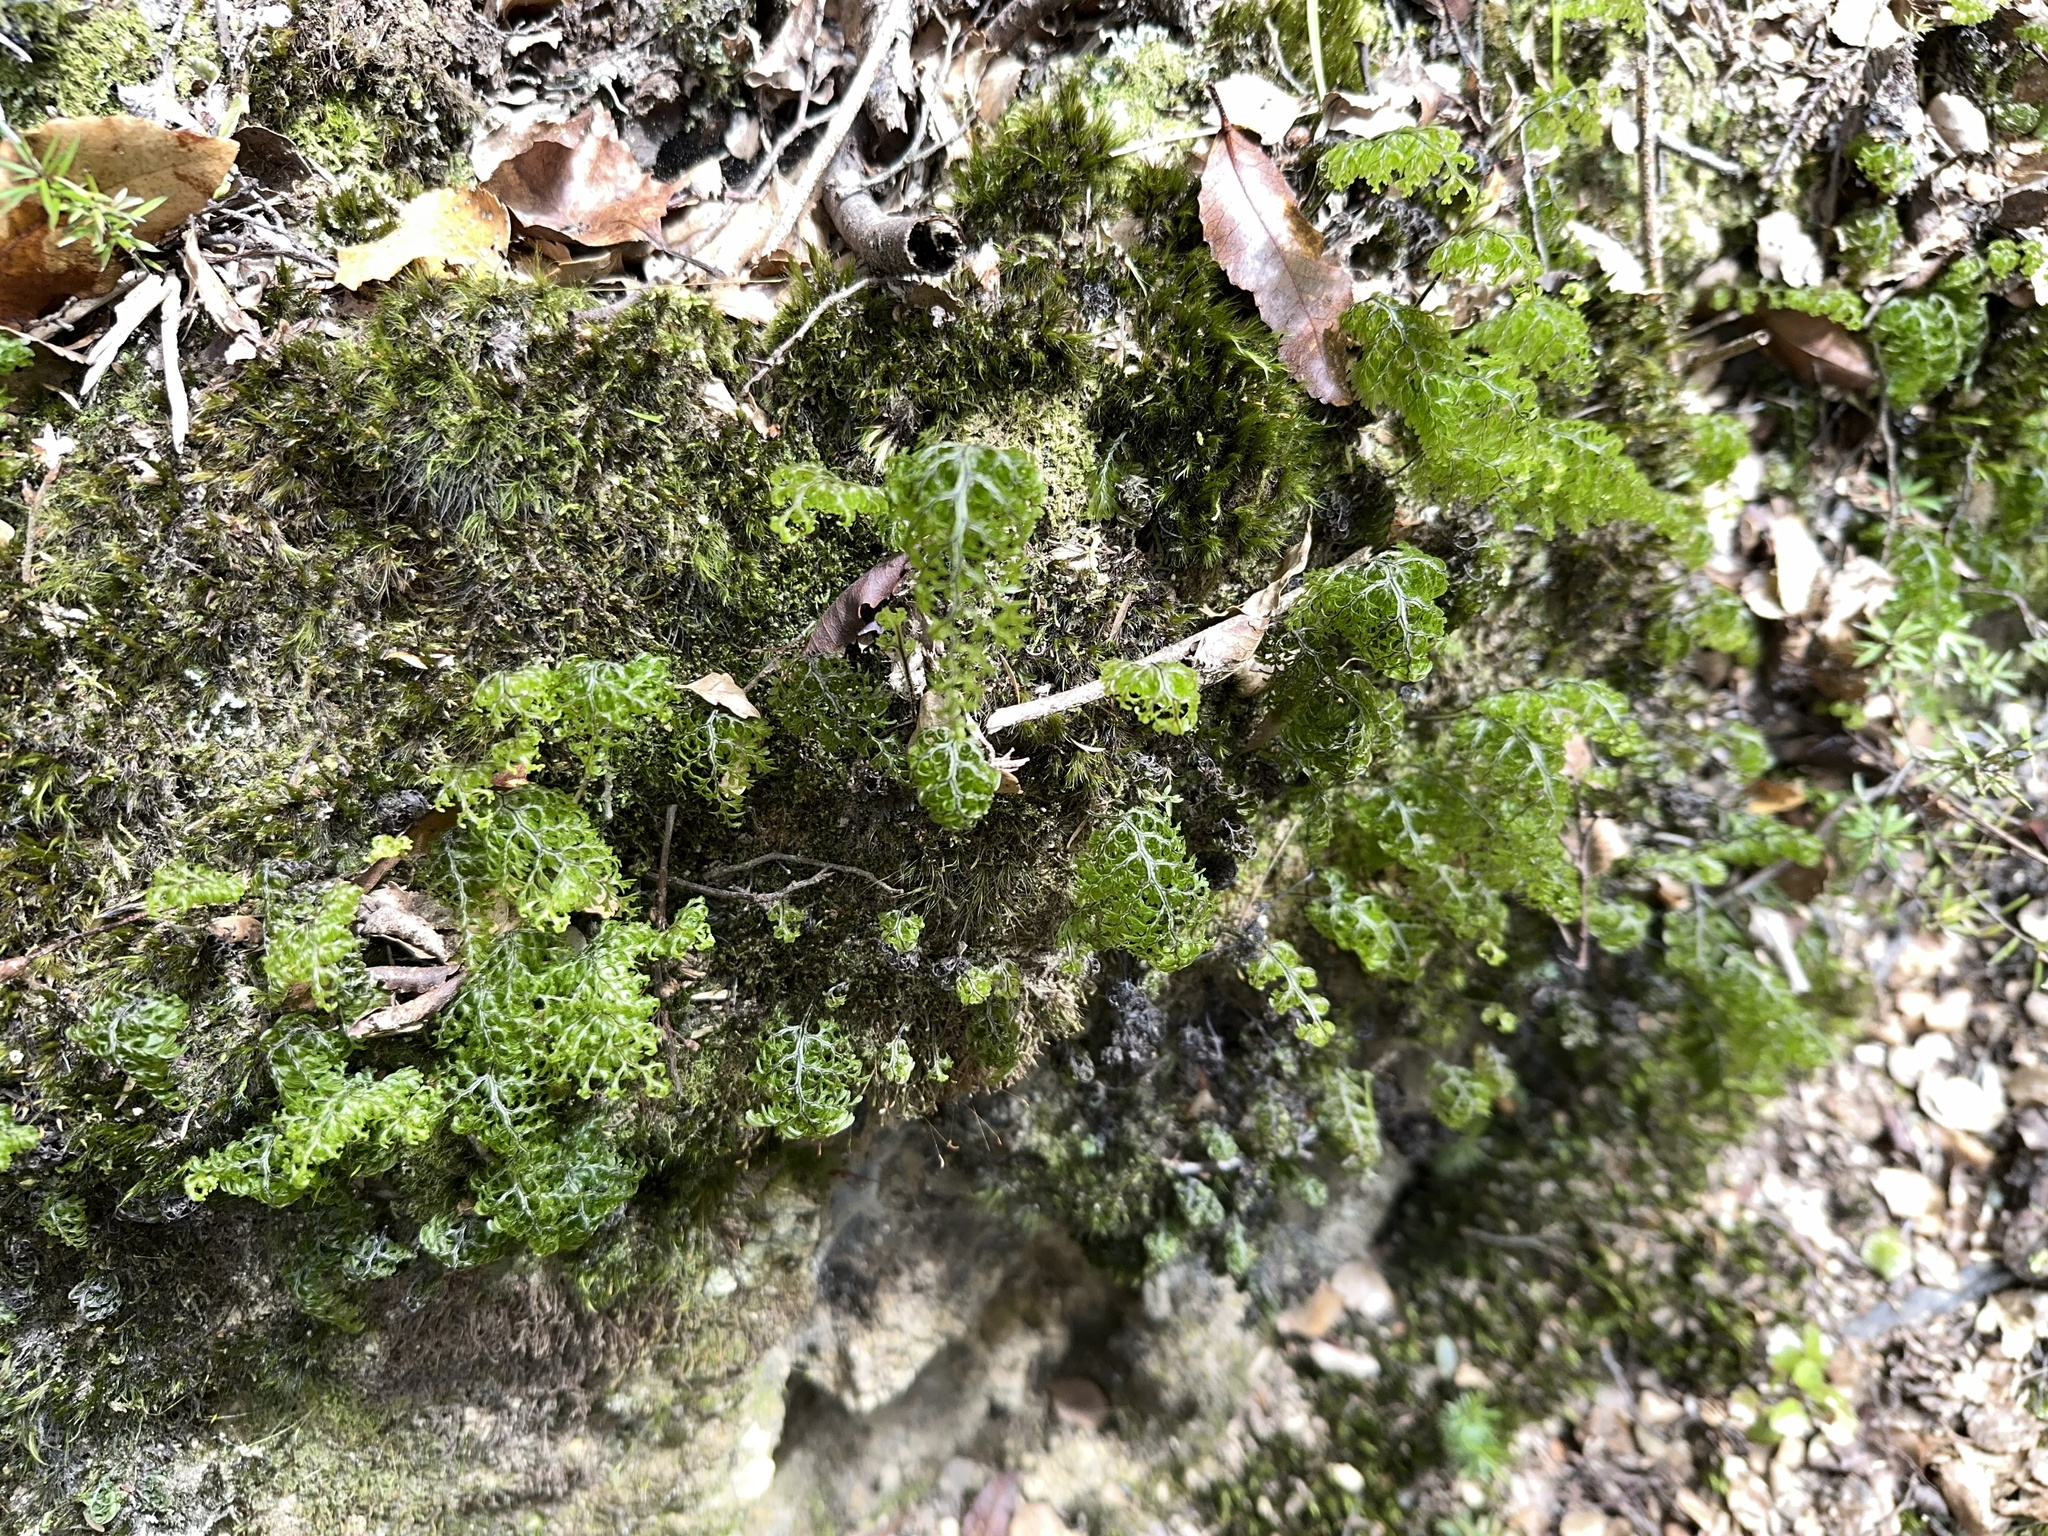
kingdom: Plantae
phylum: Tracheophyta
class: Polypodiopsida
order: Hymenophyllales
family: Hymenophyllaceae
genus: Hymenophyllum
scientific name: Hymenophyllum sanguinolentum
